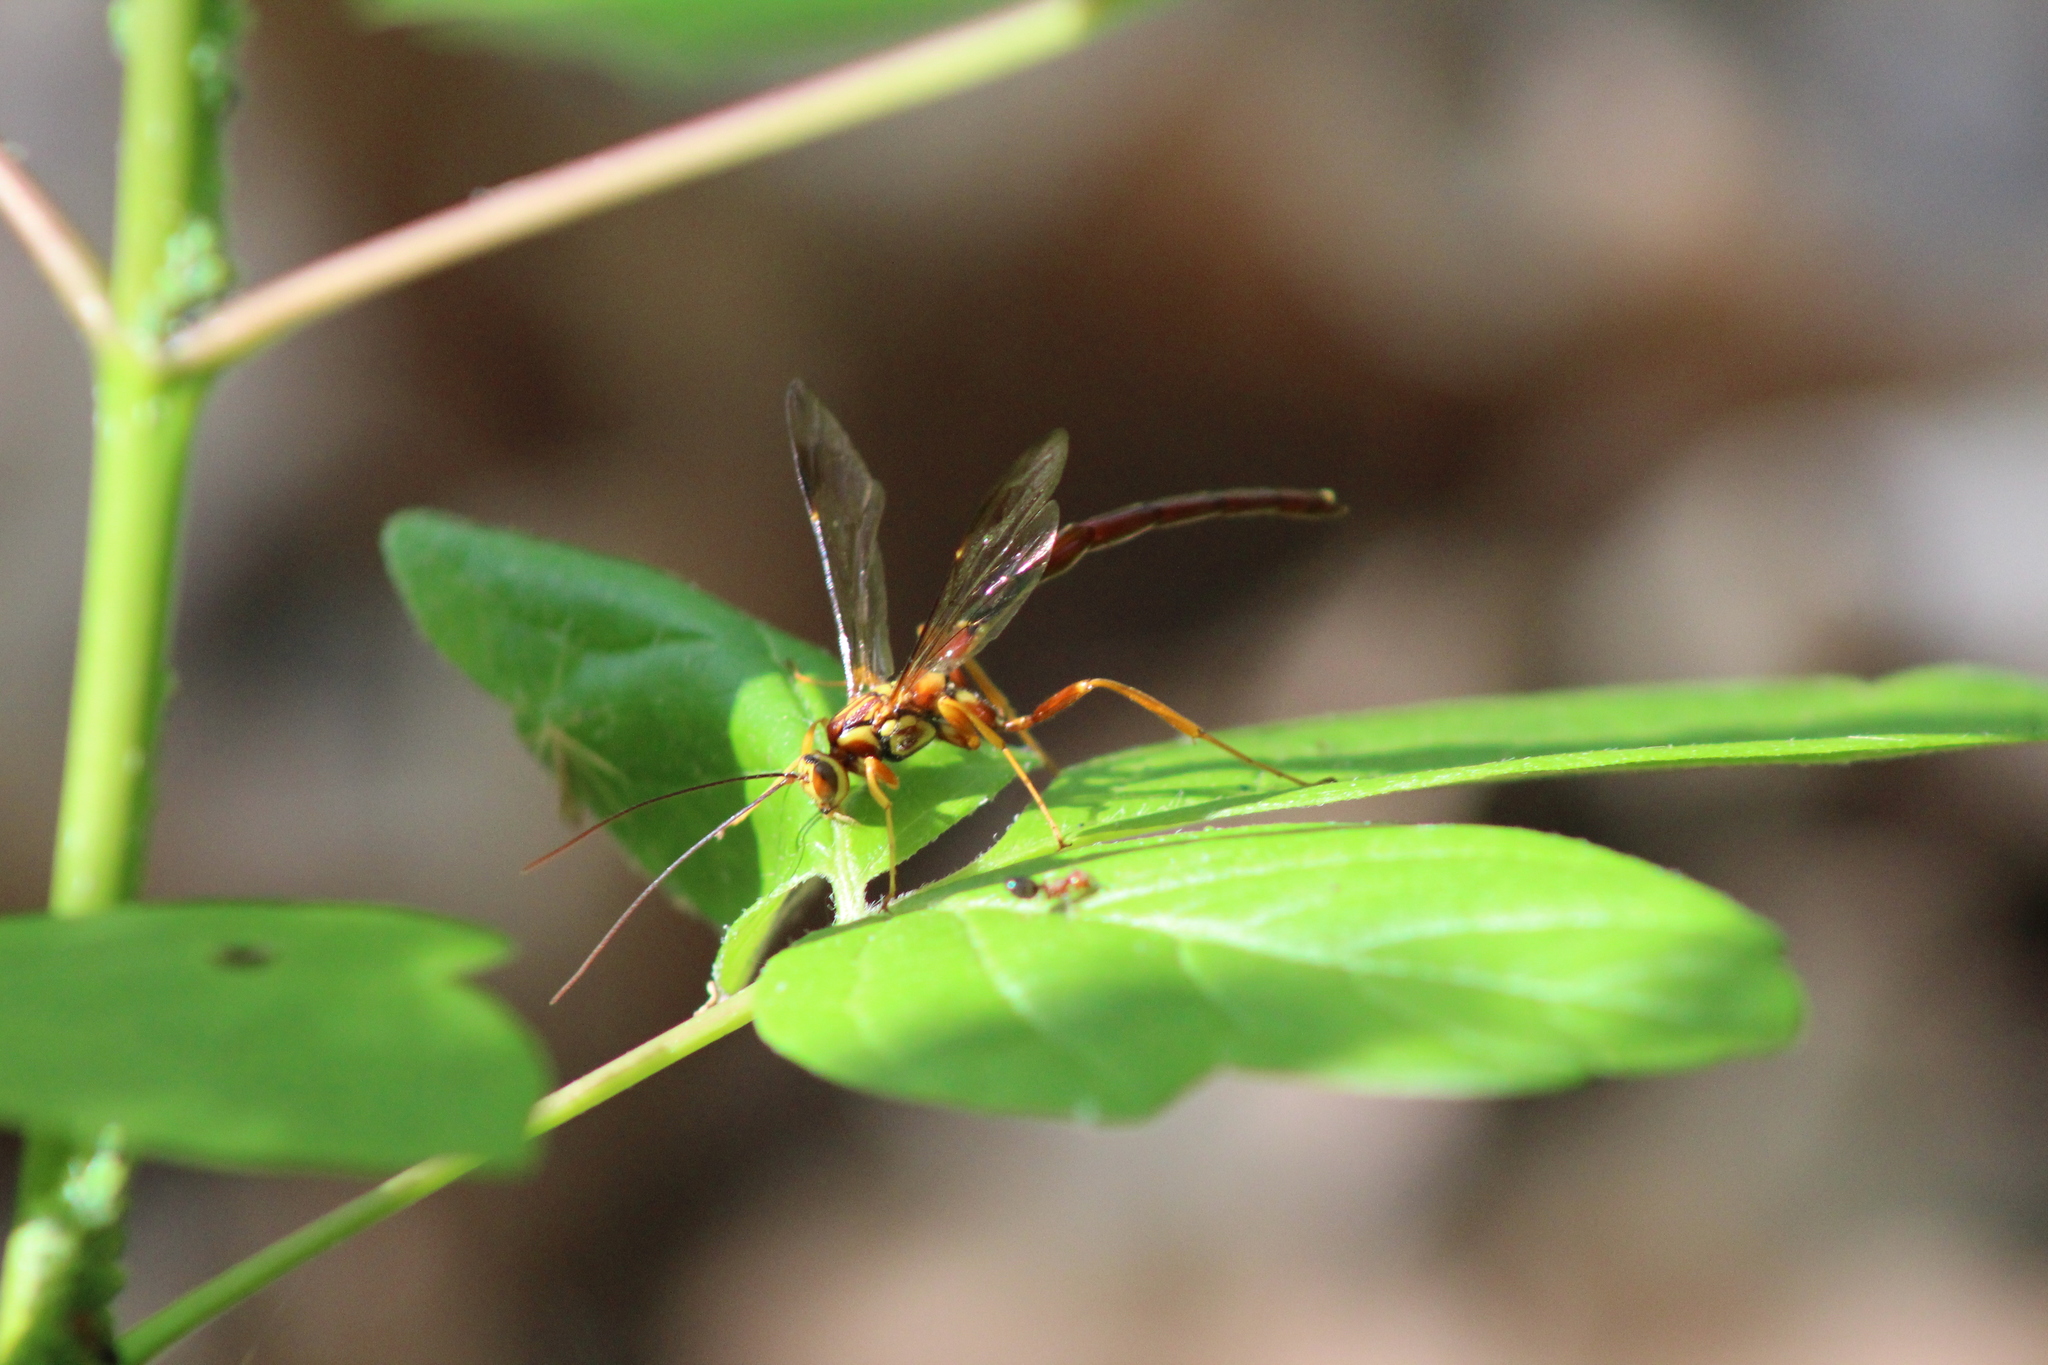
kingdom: Animalia
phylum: Arthropoda
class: Insecta
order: Hymenoptera
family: Ichneumonidae
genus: Megarhyssa
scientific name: Megarhyssa greenei
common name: Greene's giant ichneumonid wasp
